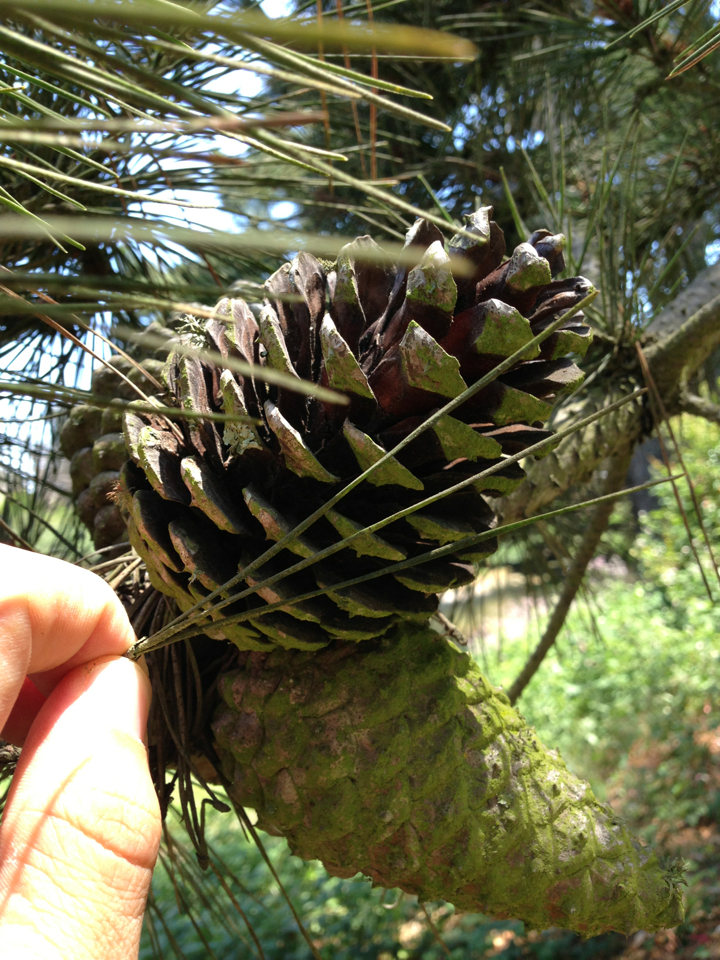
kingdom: Plantae
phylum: Tracheophyta
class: Pinopsida
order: Pinales
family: Pinaceae
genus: Pinus
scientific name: Pinus radiata
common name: Monterey pine
